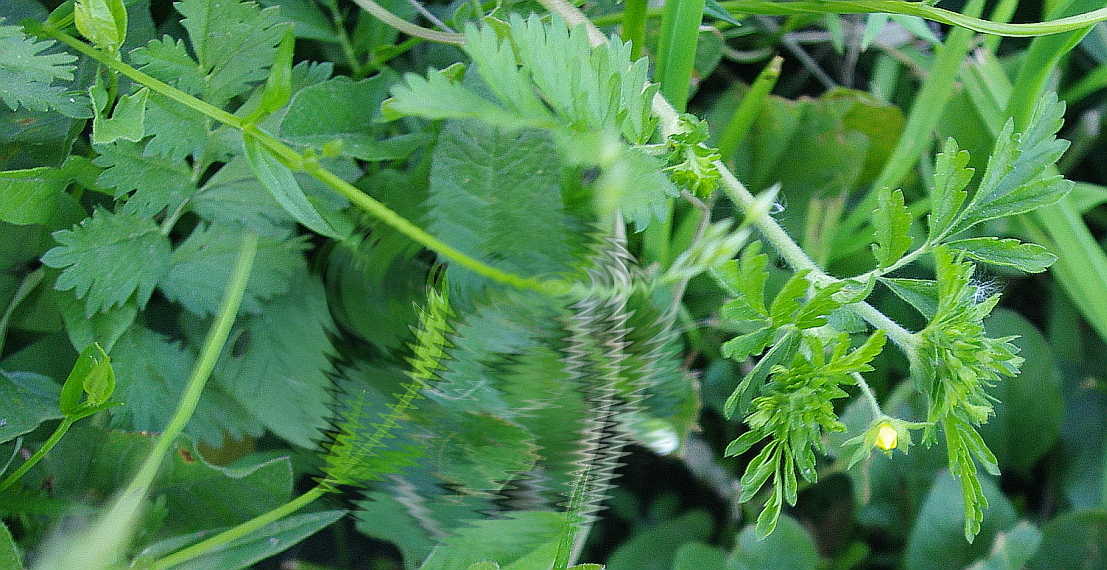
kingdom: Plantae
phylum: Tracheophyta
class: Magnoliopsida
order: Rosales
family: Rosaceae
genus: Potentilla
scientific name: Potentilla supina
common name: Prostrate cinquefoil
